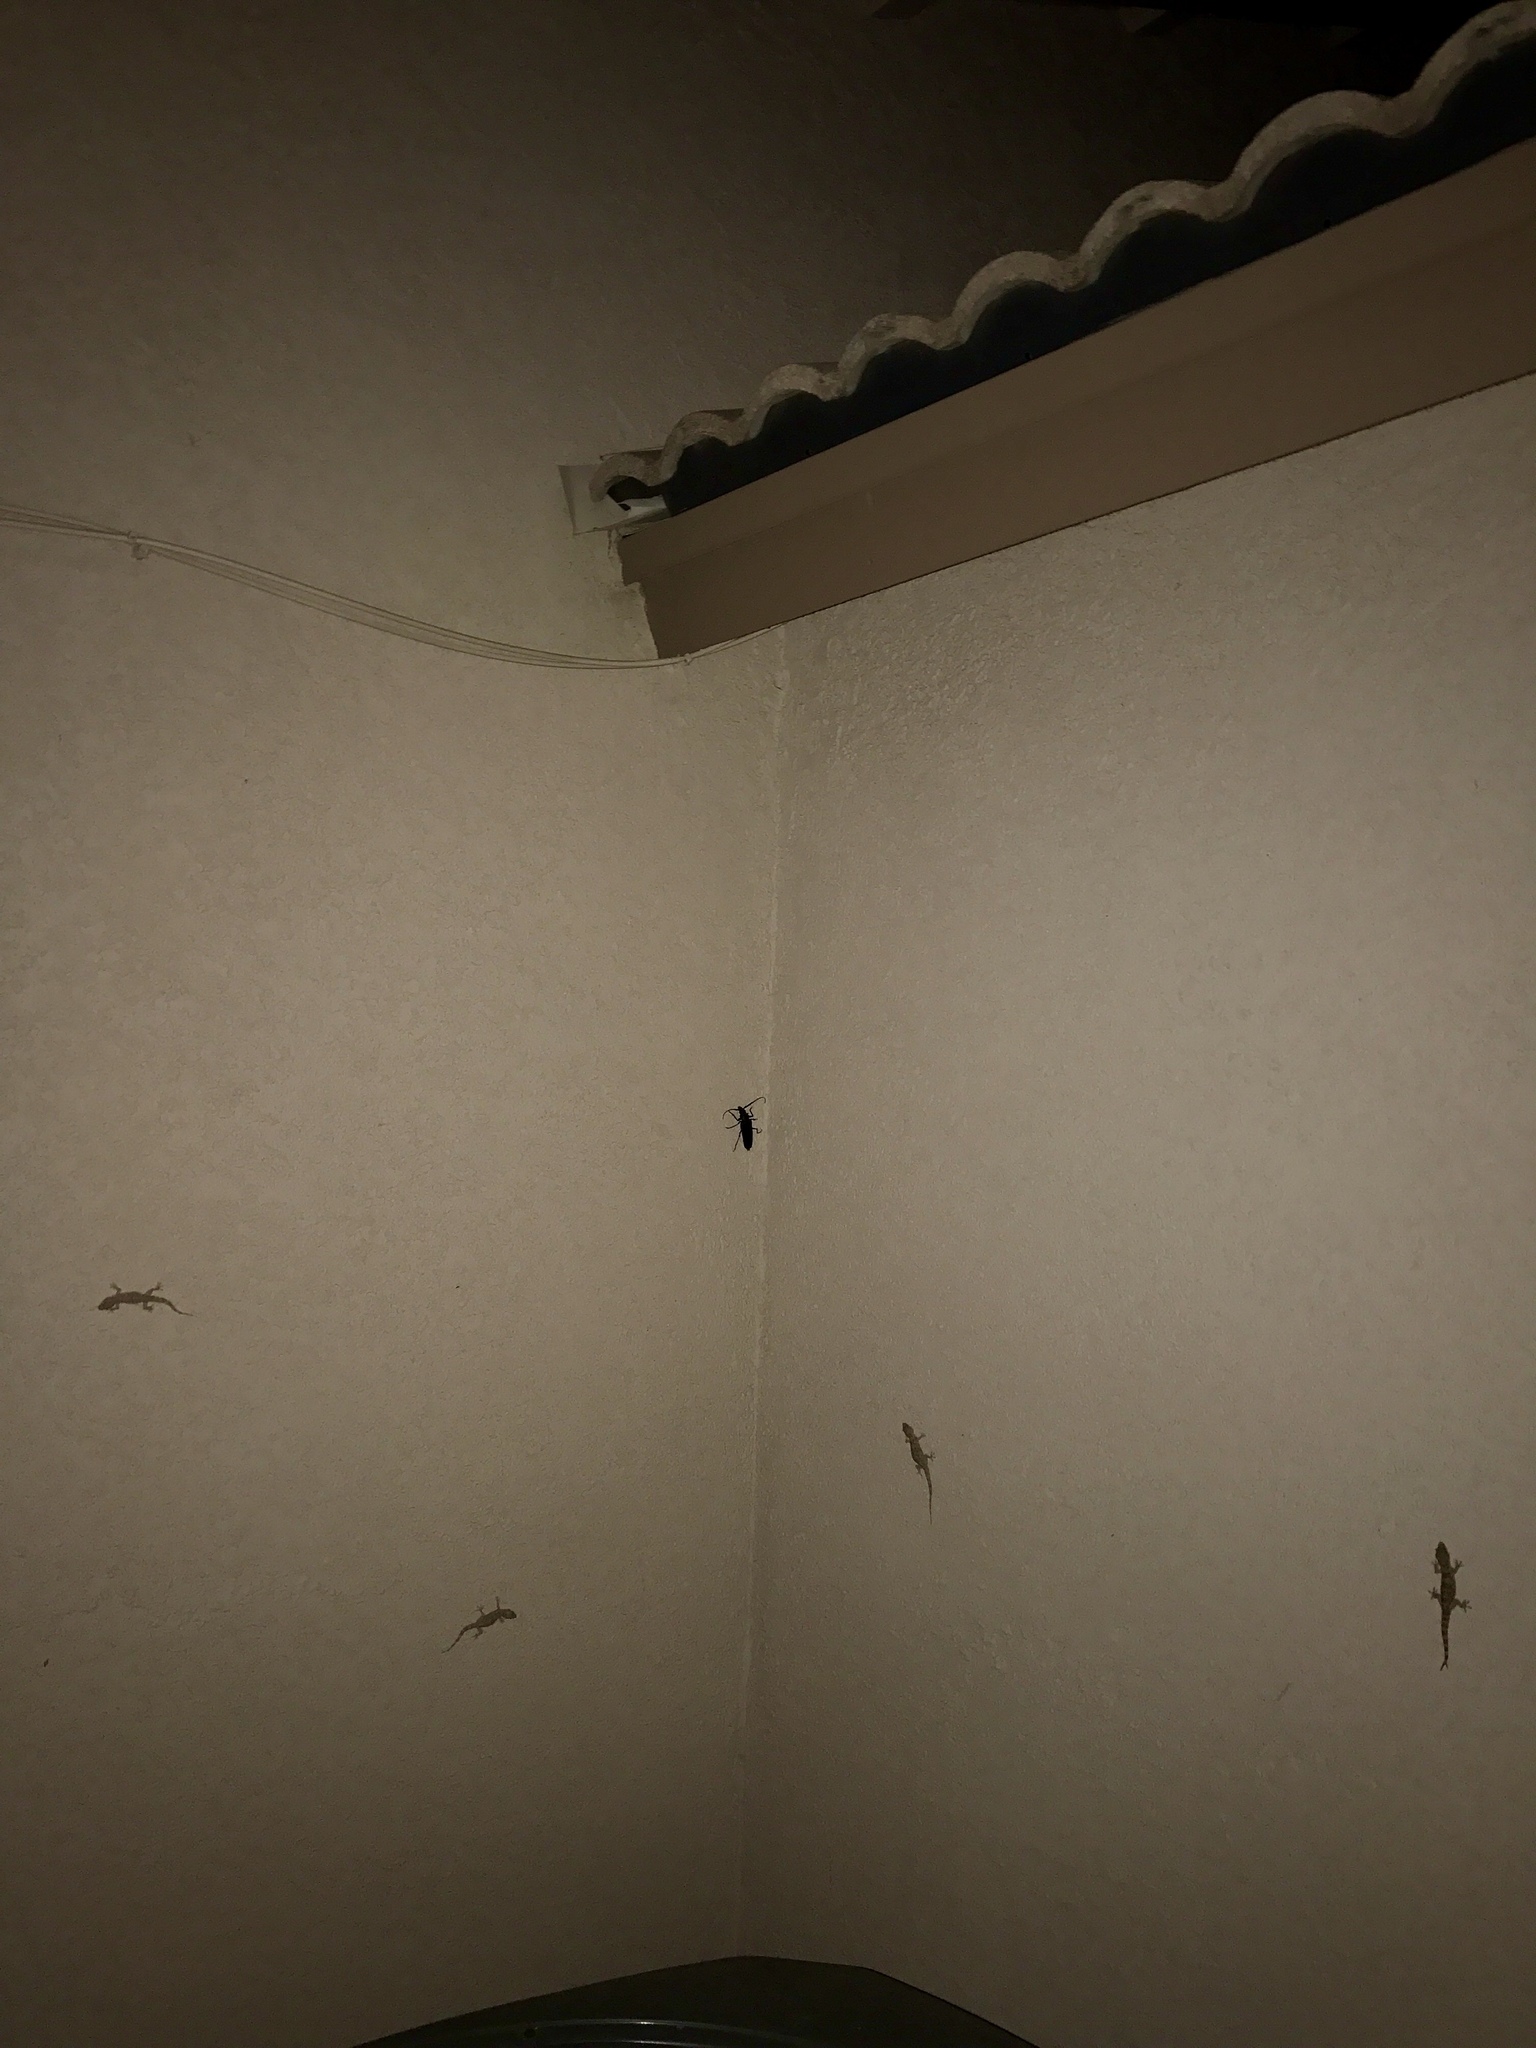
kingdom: Animalia
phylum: Chordata
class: Squamata
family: Gekkonidae
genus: Hemidactylus
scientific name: Hemidactylus turcicus
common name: Turkish gecko
